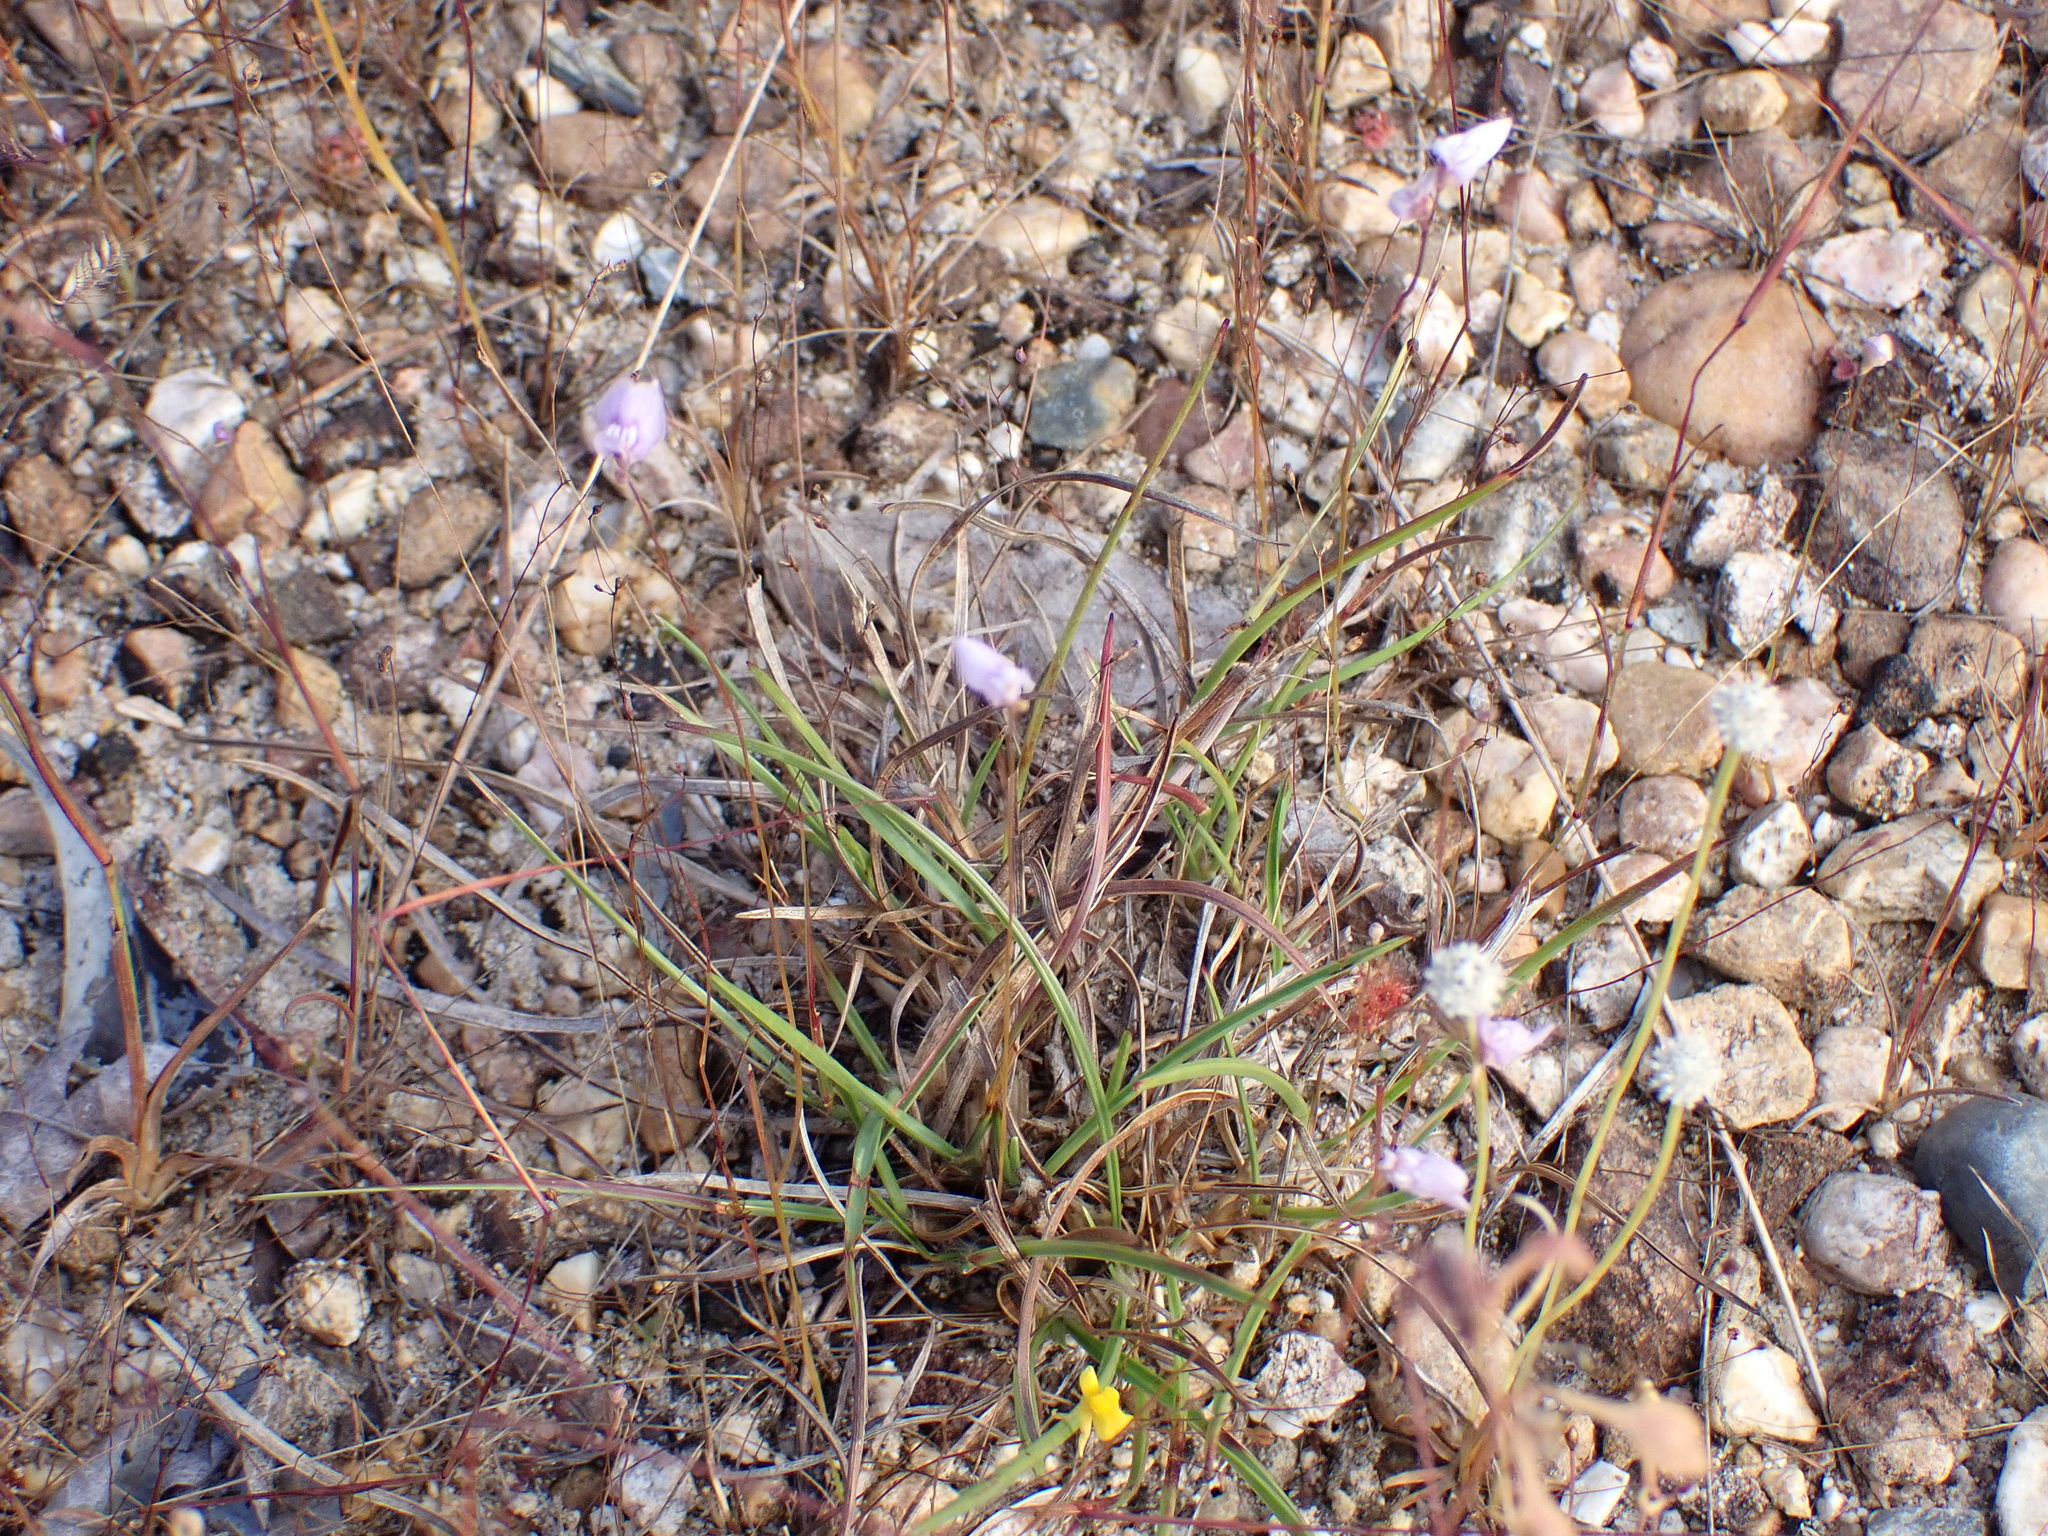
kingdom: Plantae
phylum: Tracheophyta
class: Magnoliopsida
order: Lamiales
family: Lentibulariaceae
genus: Utricularia
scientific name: Utricularia caerulea
